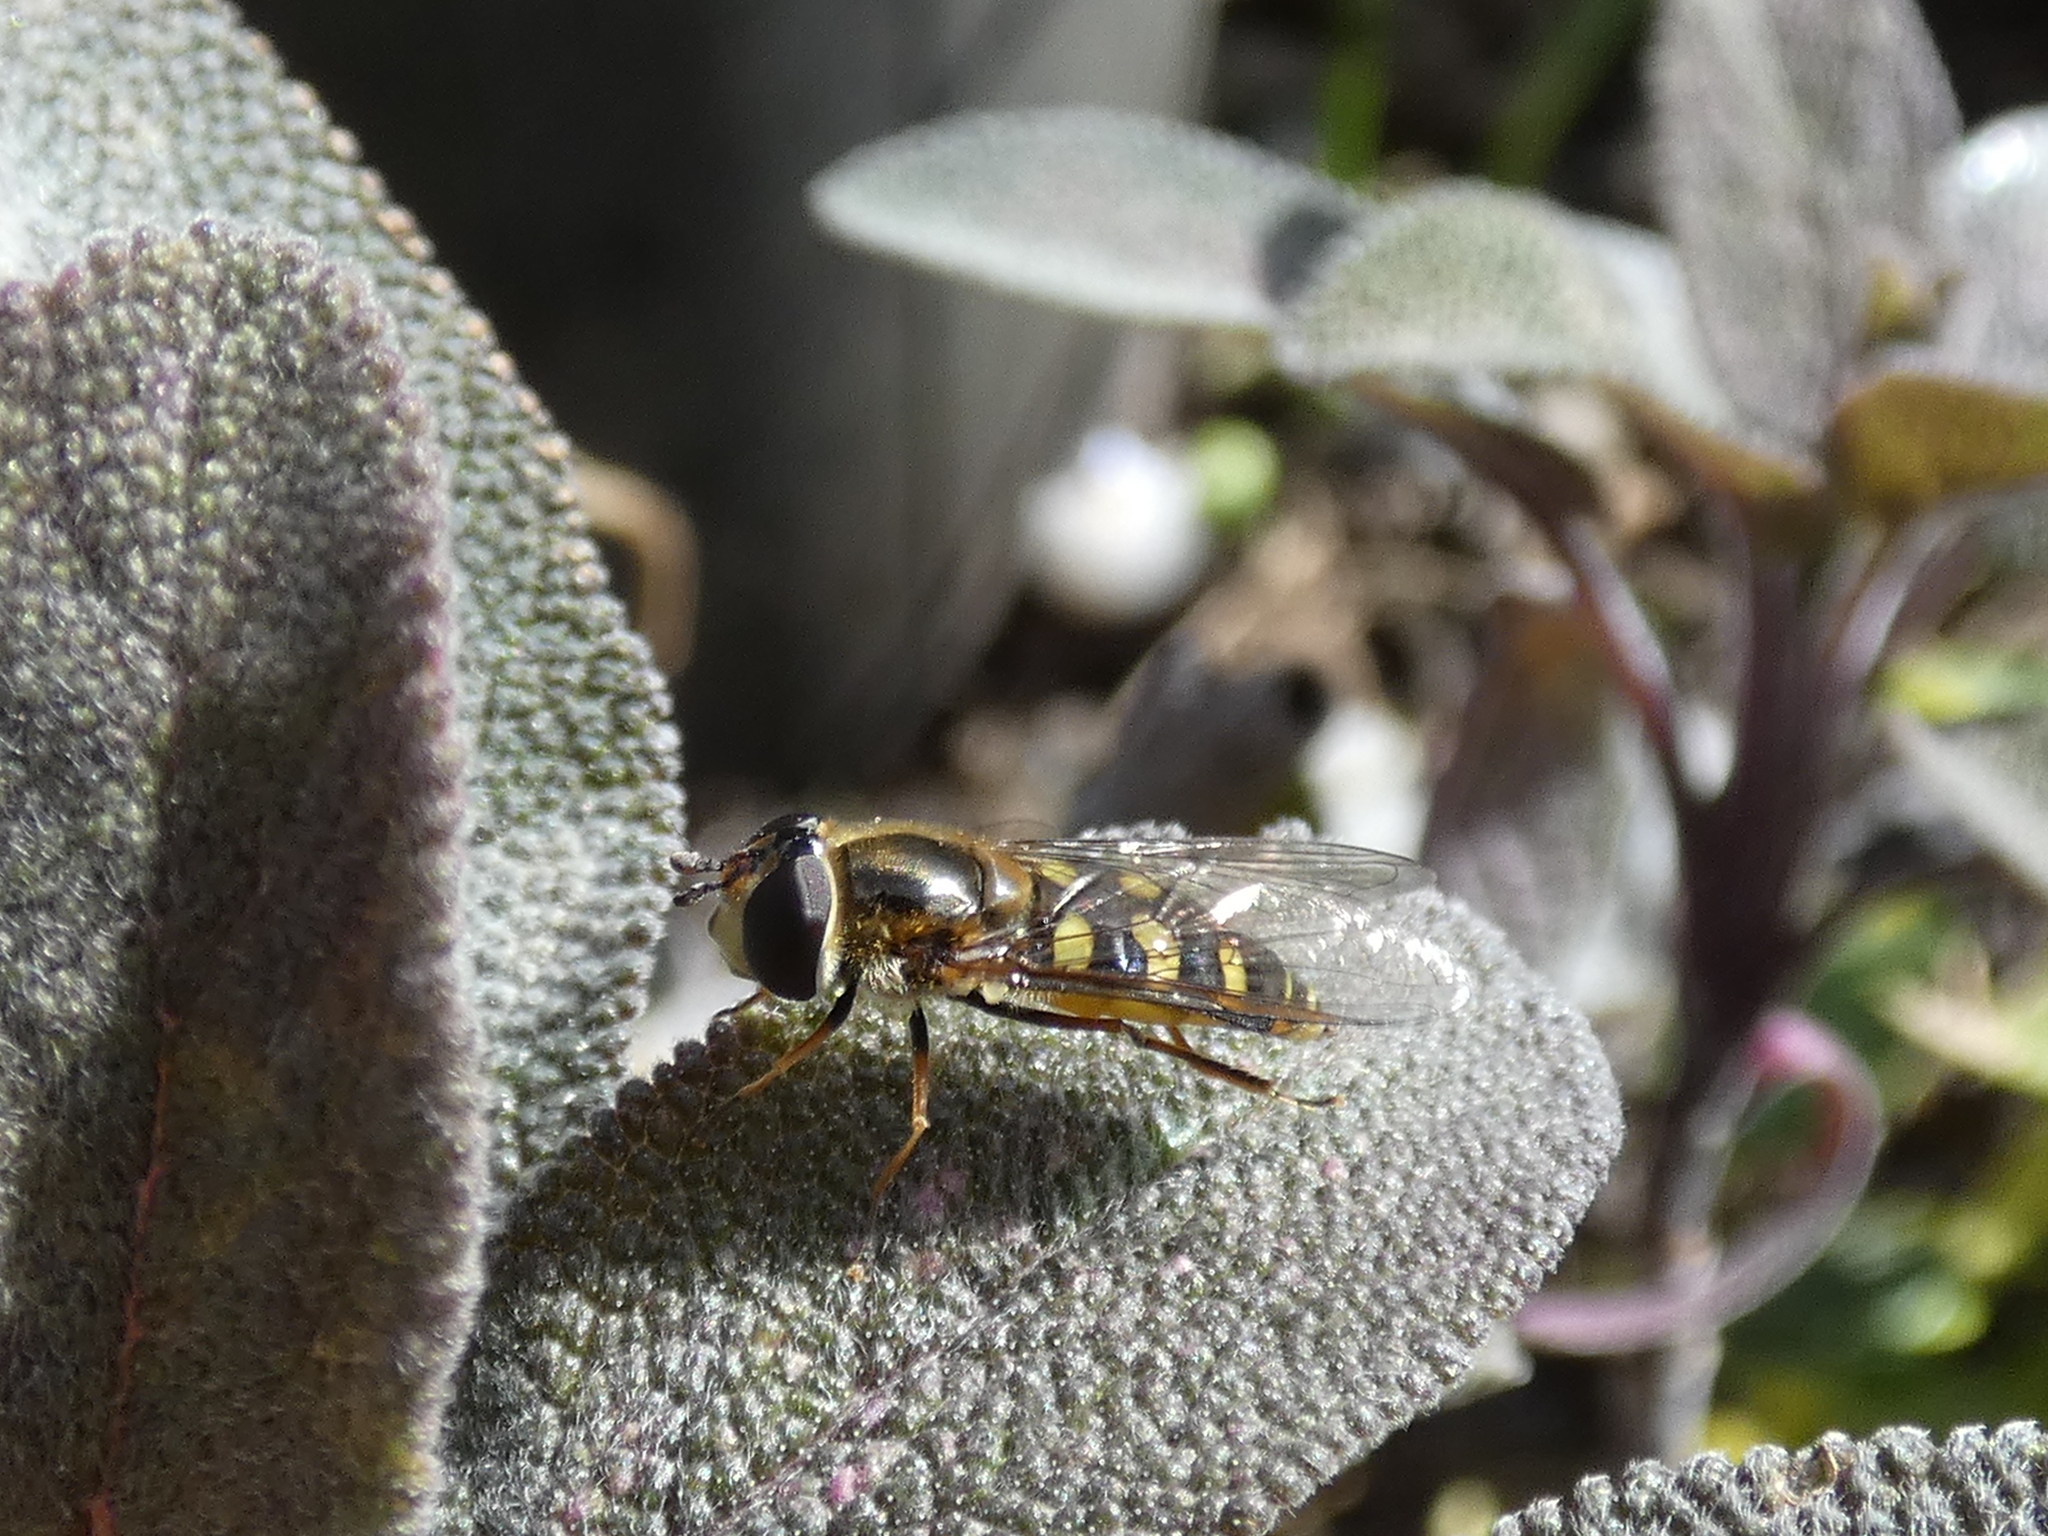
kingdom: Animalia
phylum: Arthropoda
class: Insecta
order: Diptera
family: Syrphidae
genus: Eupeodes
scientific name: Eupeodes luniger
